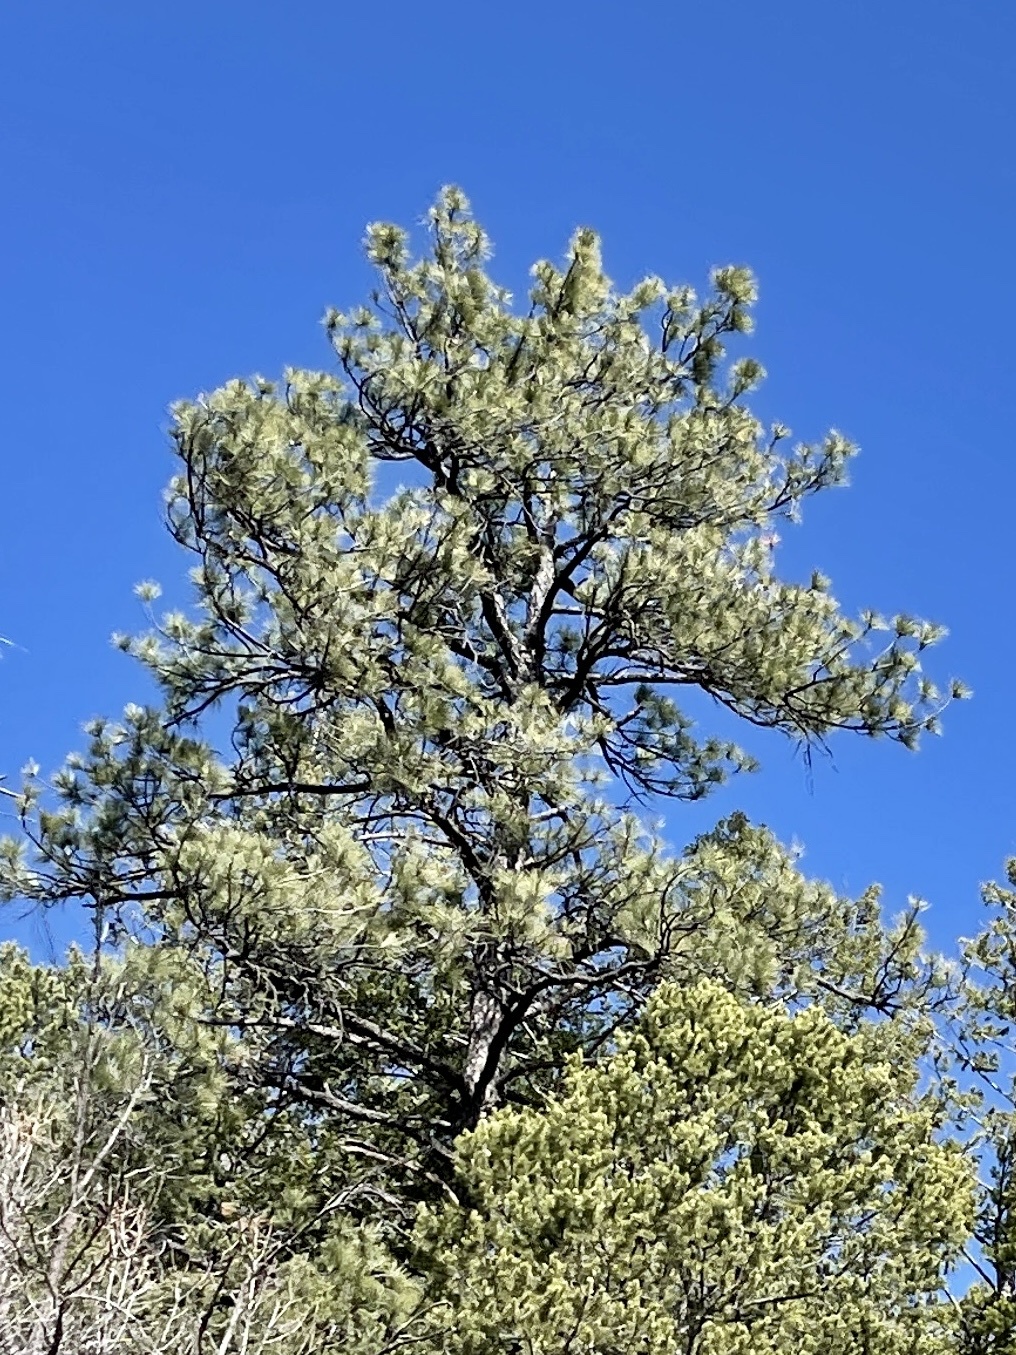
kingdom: Plantae
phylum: Tracheophyta
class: Pinopsida
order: Pinales
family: Pinaceae
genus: Pinus
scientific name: Pinus ponderosa
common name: Western yellow-pine
